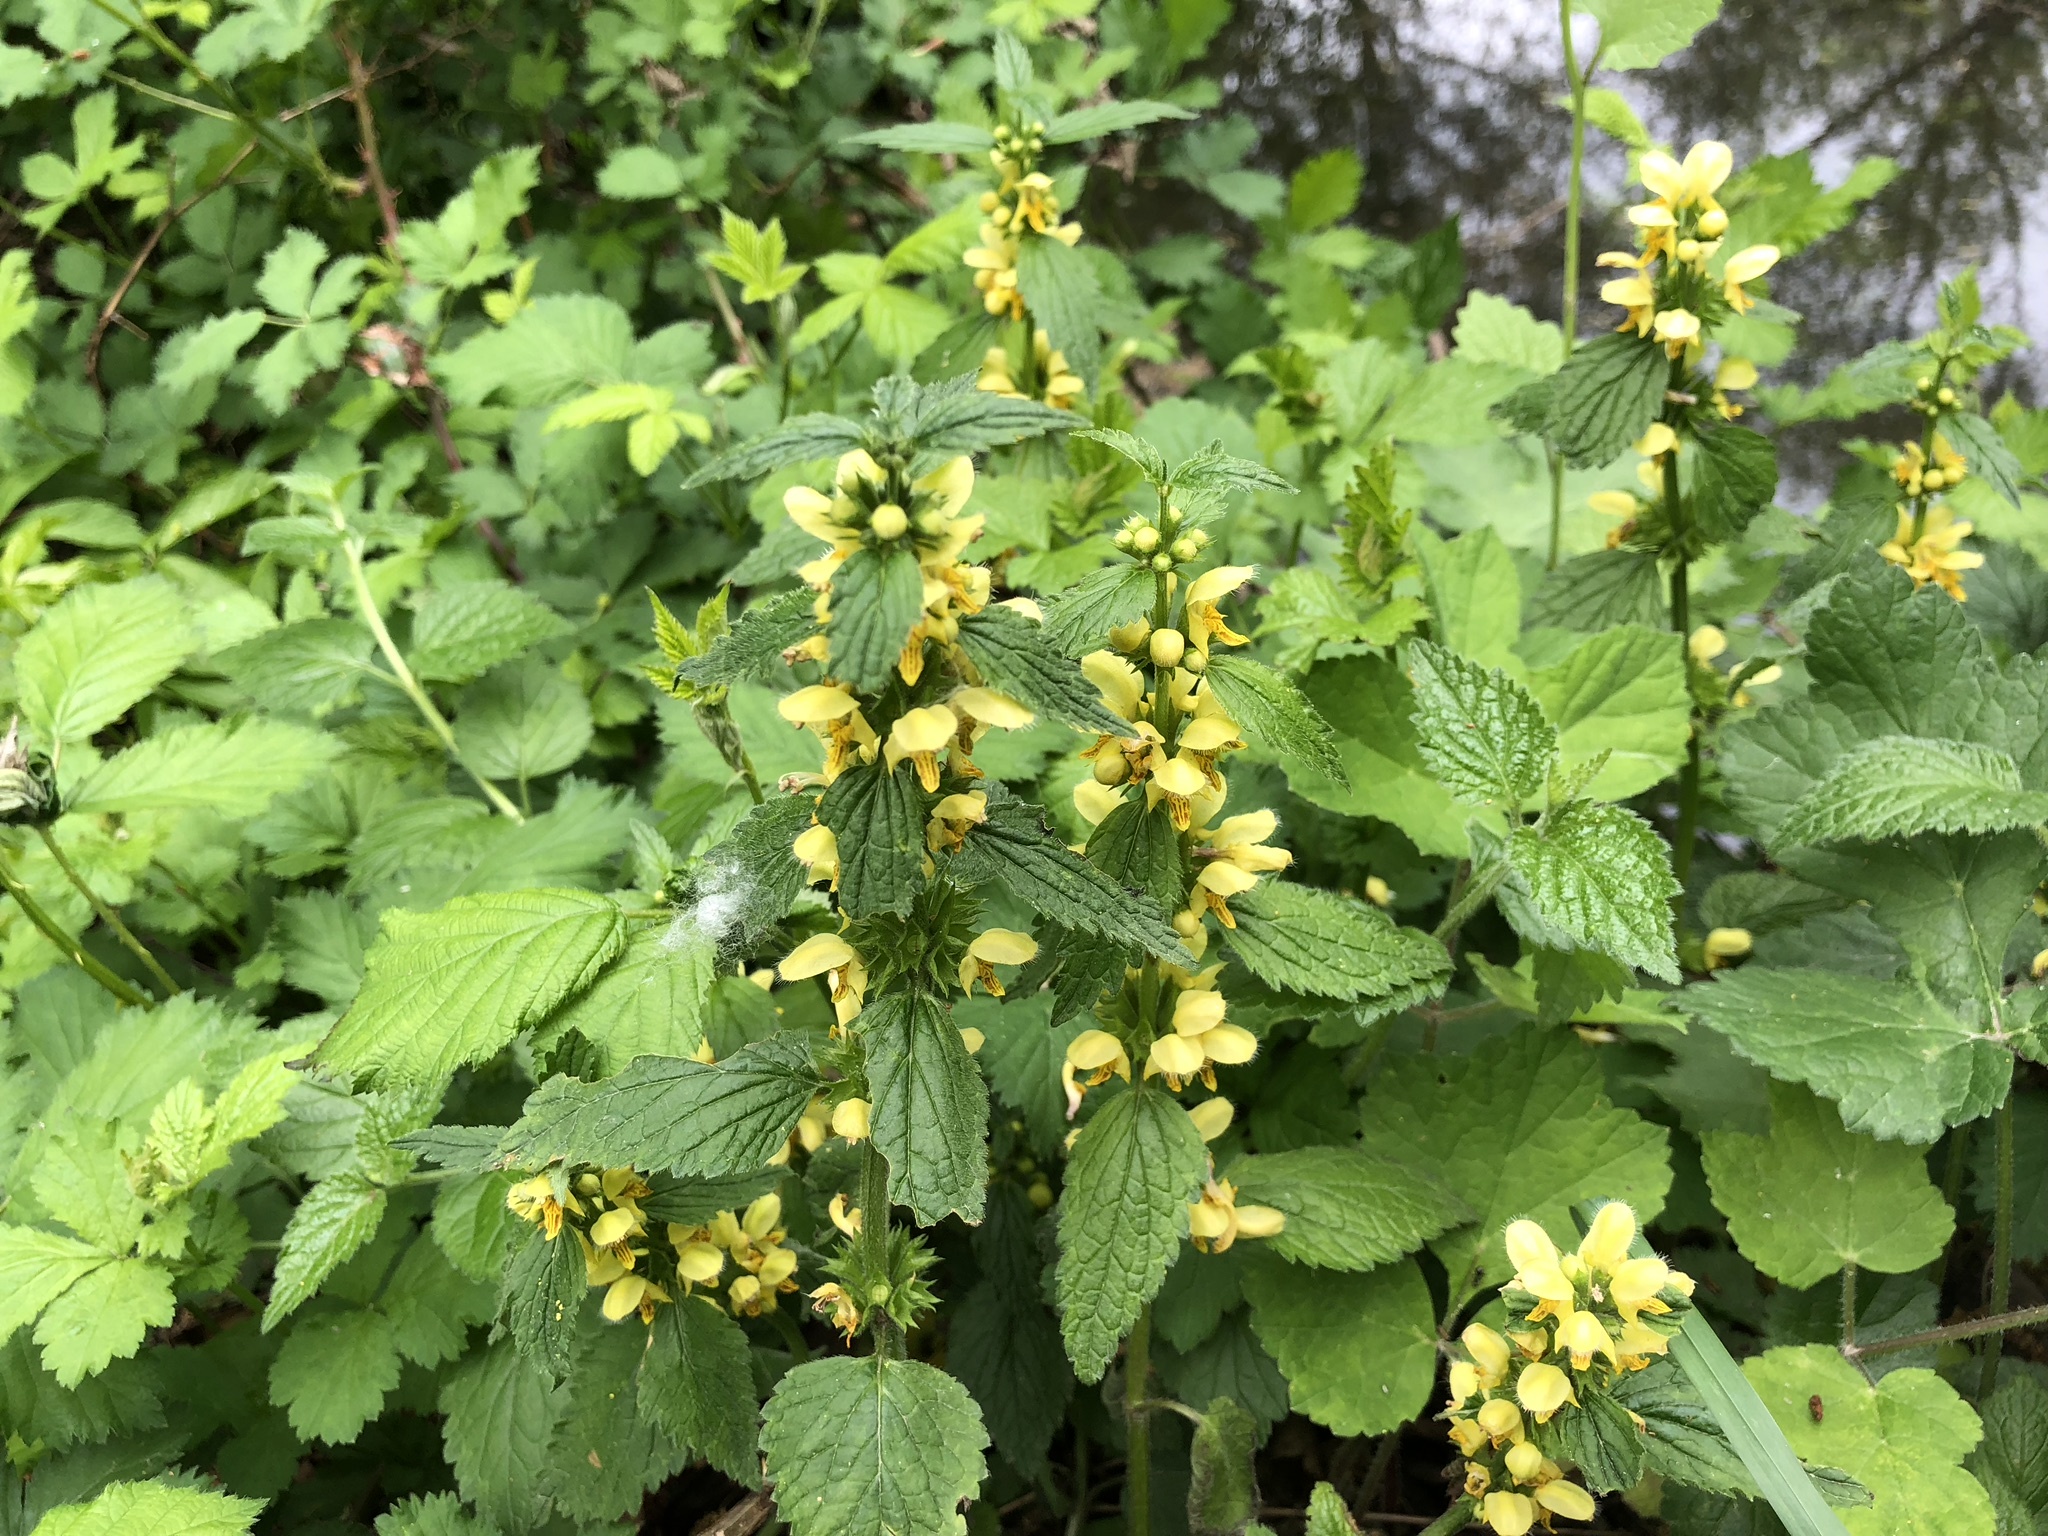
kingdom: Plantae
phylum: Tracheophyta
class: Magnoliopsida
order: Lamiales
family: Lamiaceae
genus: Lamium
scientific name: Lamium galeobdolon
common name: Yellow archangel
